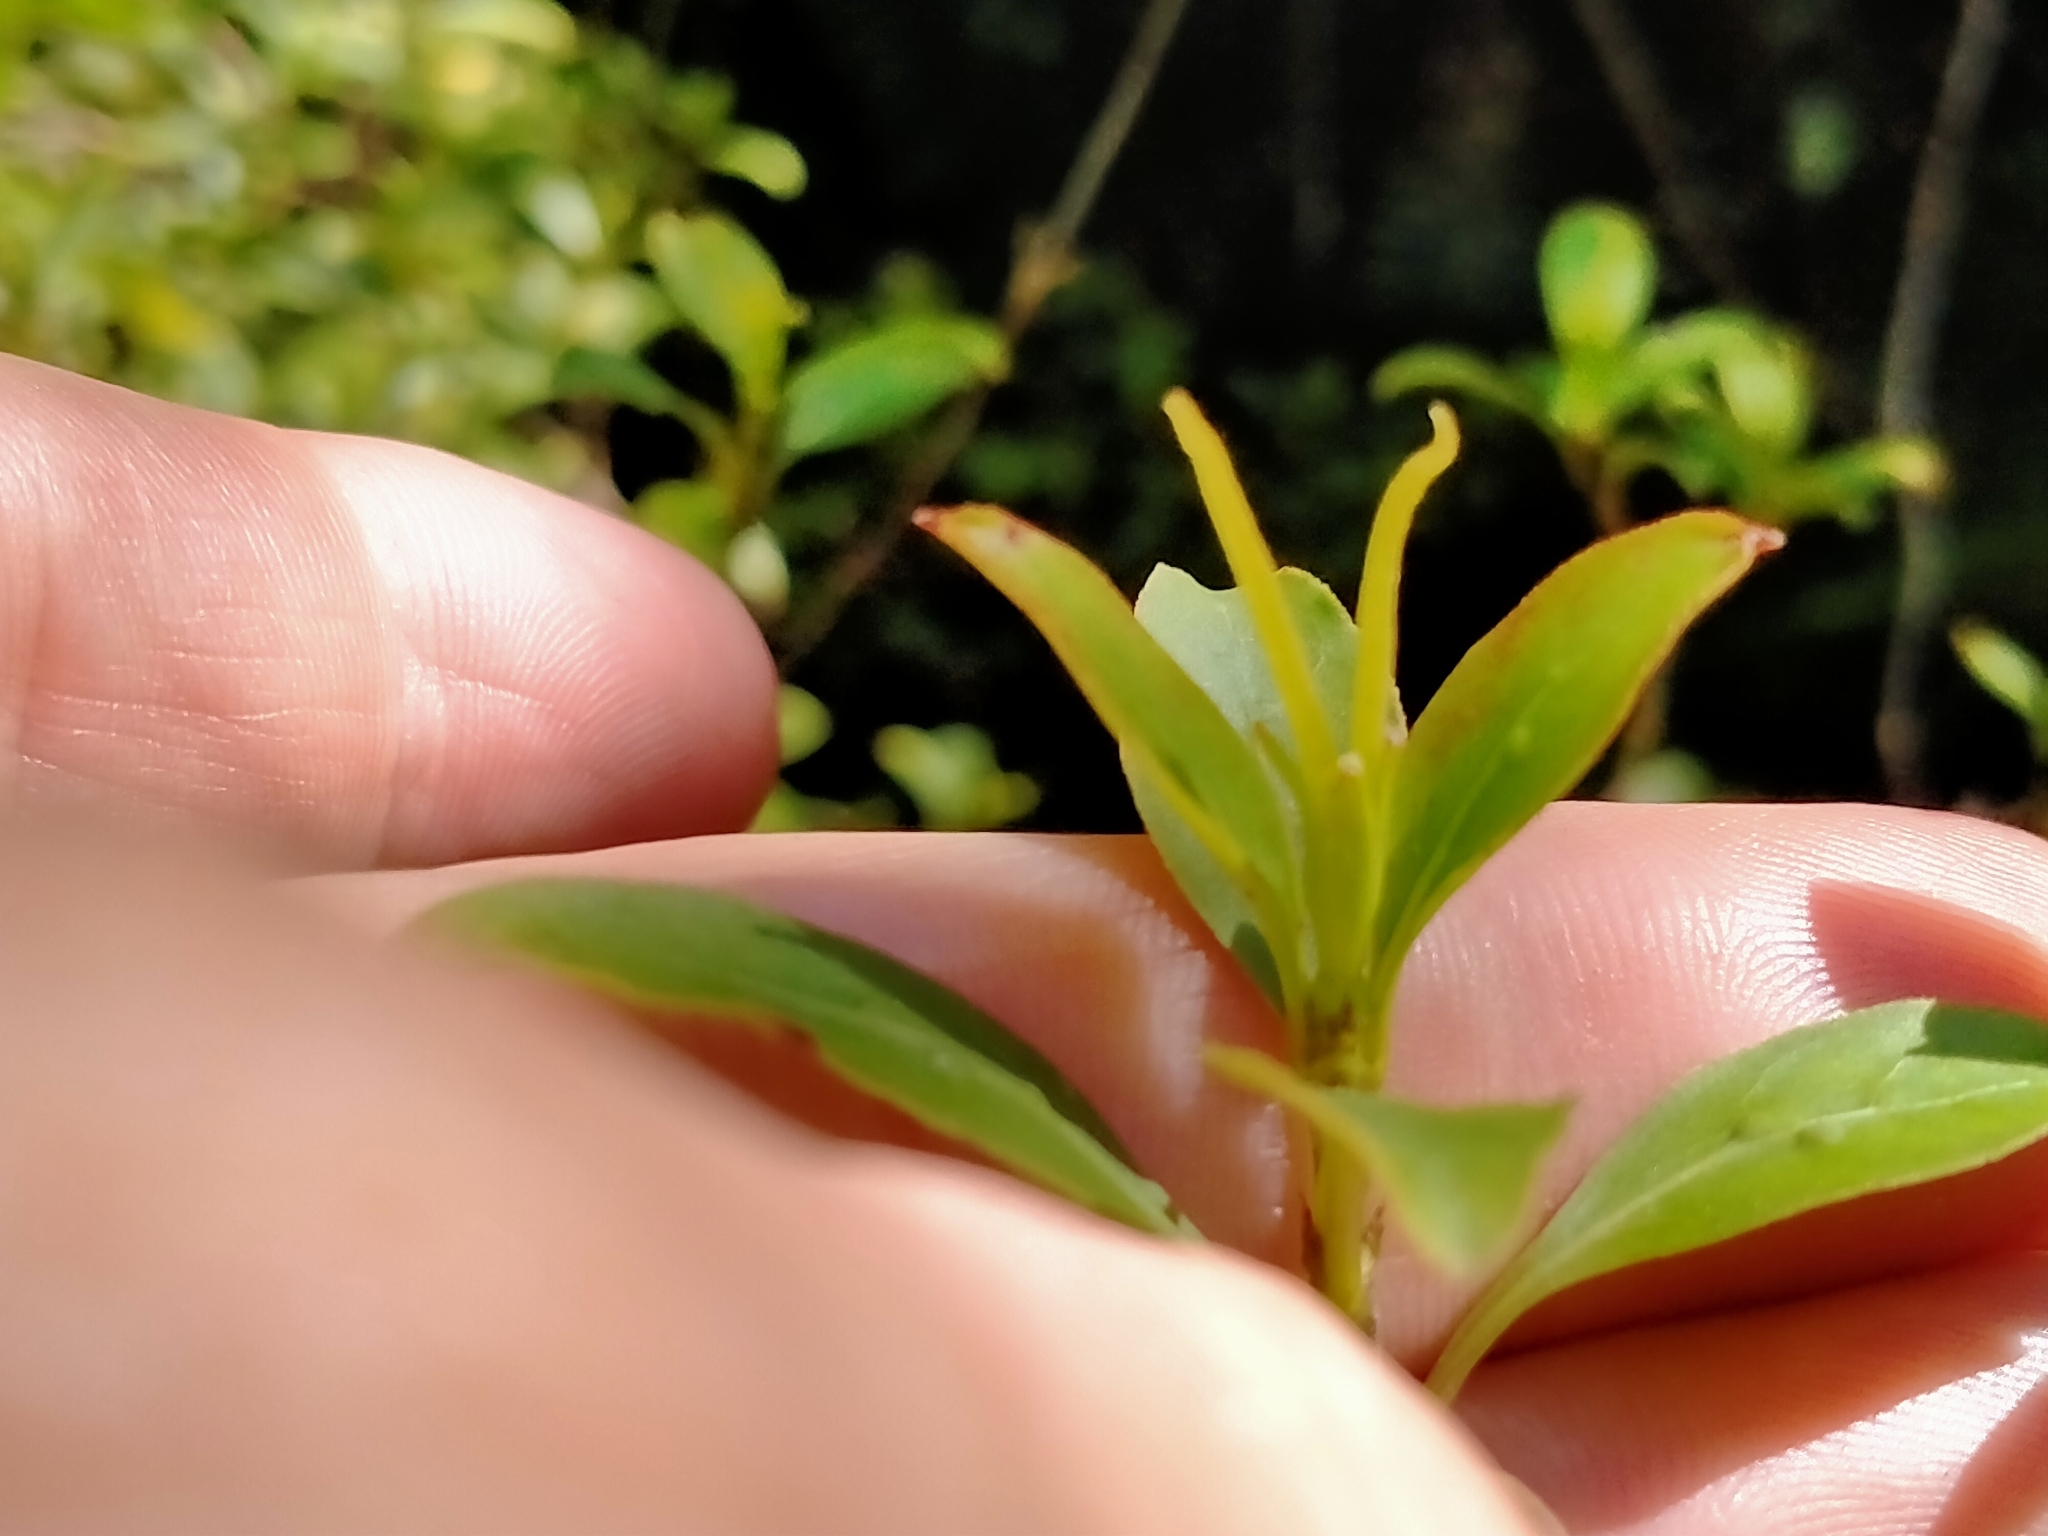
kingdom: Plantae
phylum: Tracheophyta
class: Magnoliopsida
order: Gentianales
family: Rubiaceae
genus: Coprosma
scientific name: Coprosma foetidissima
